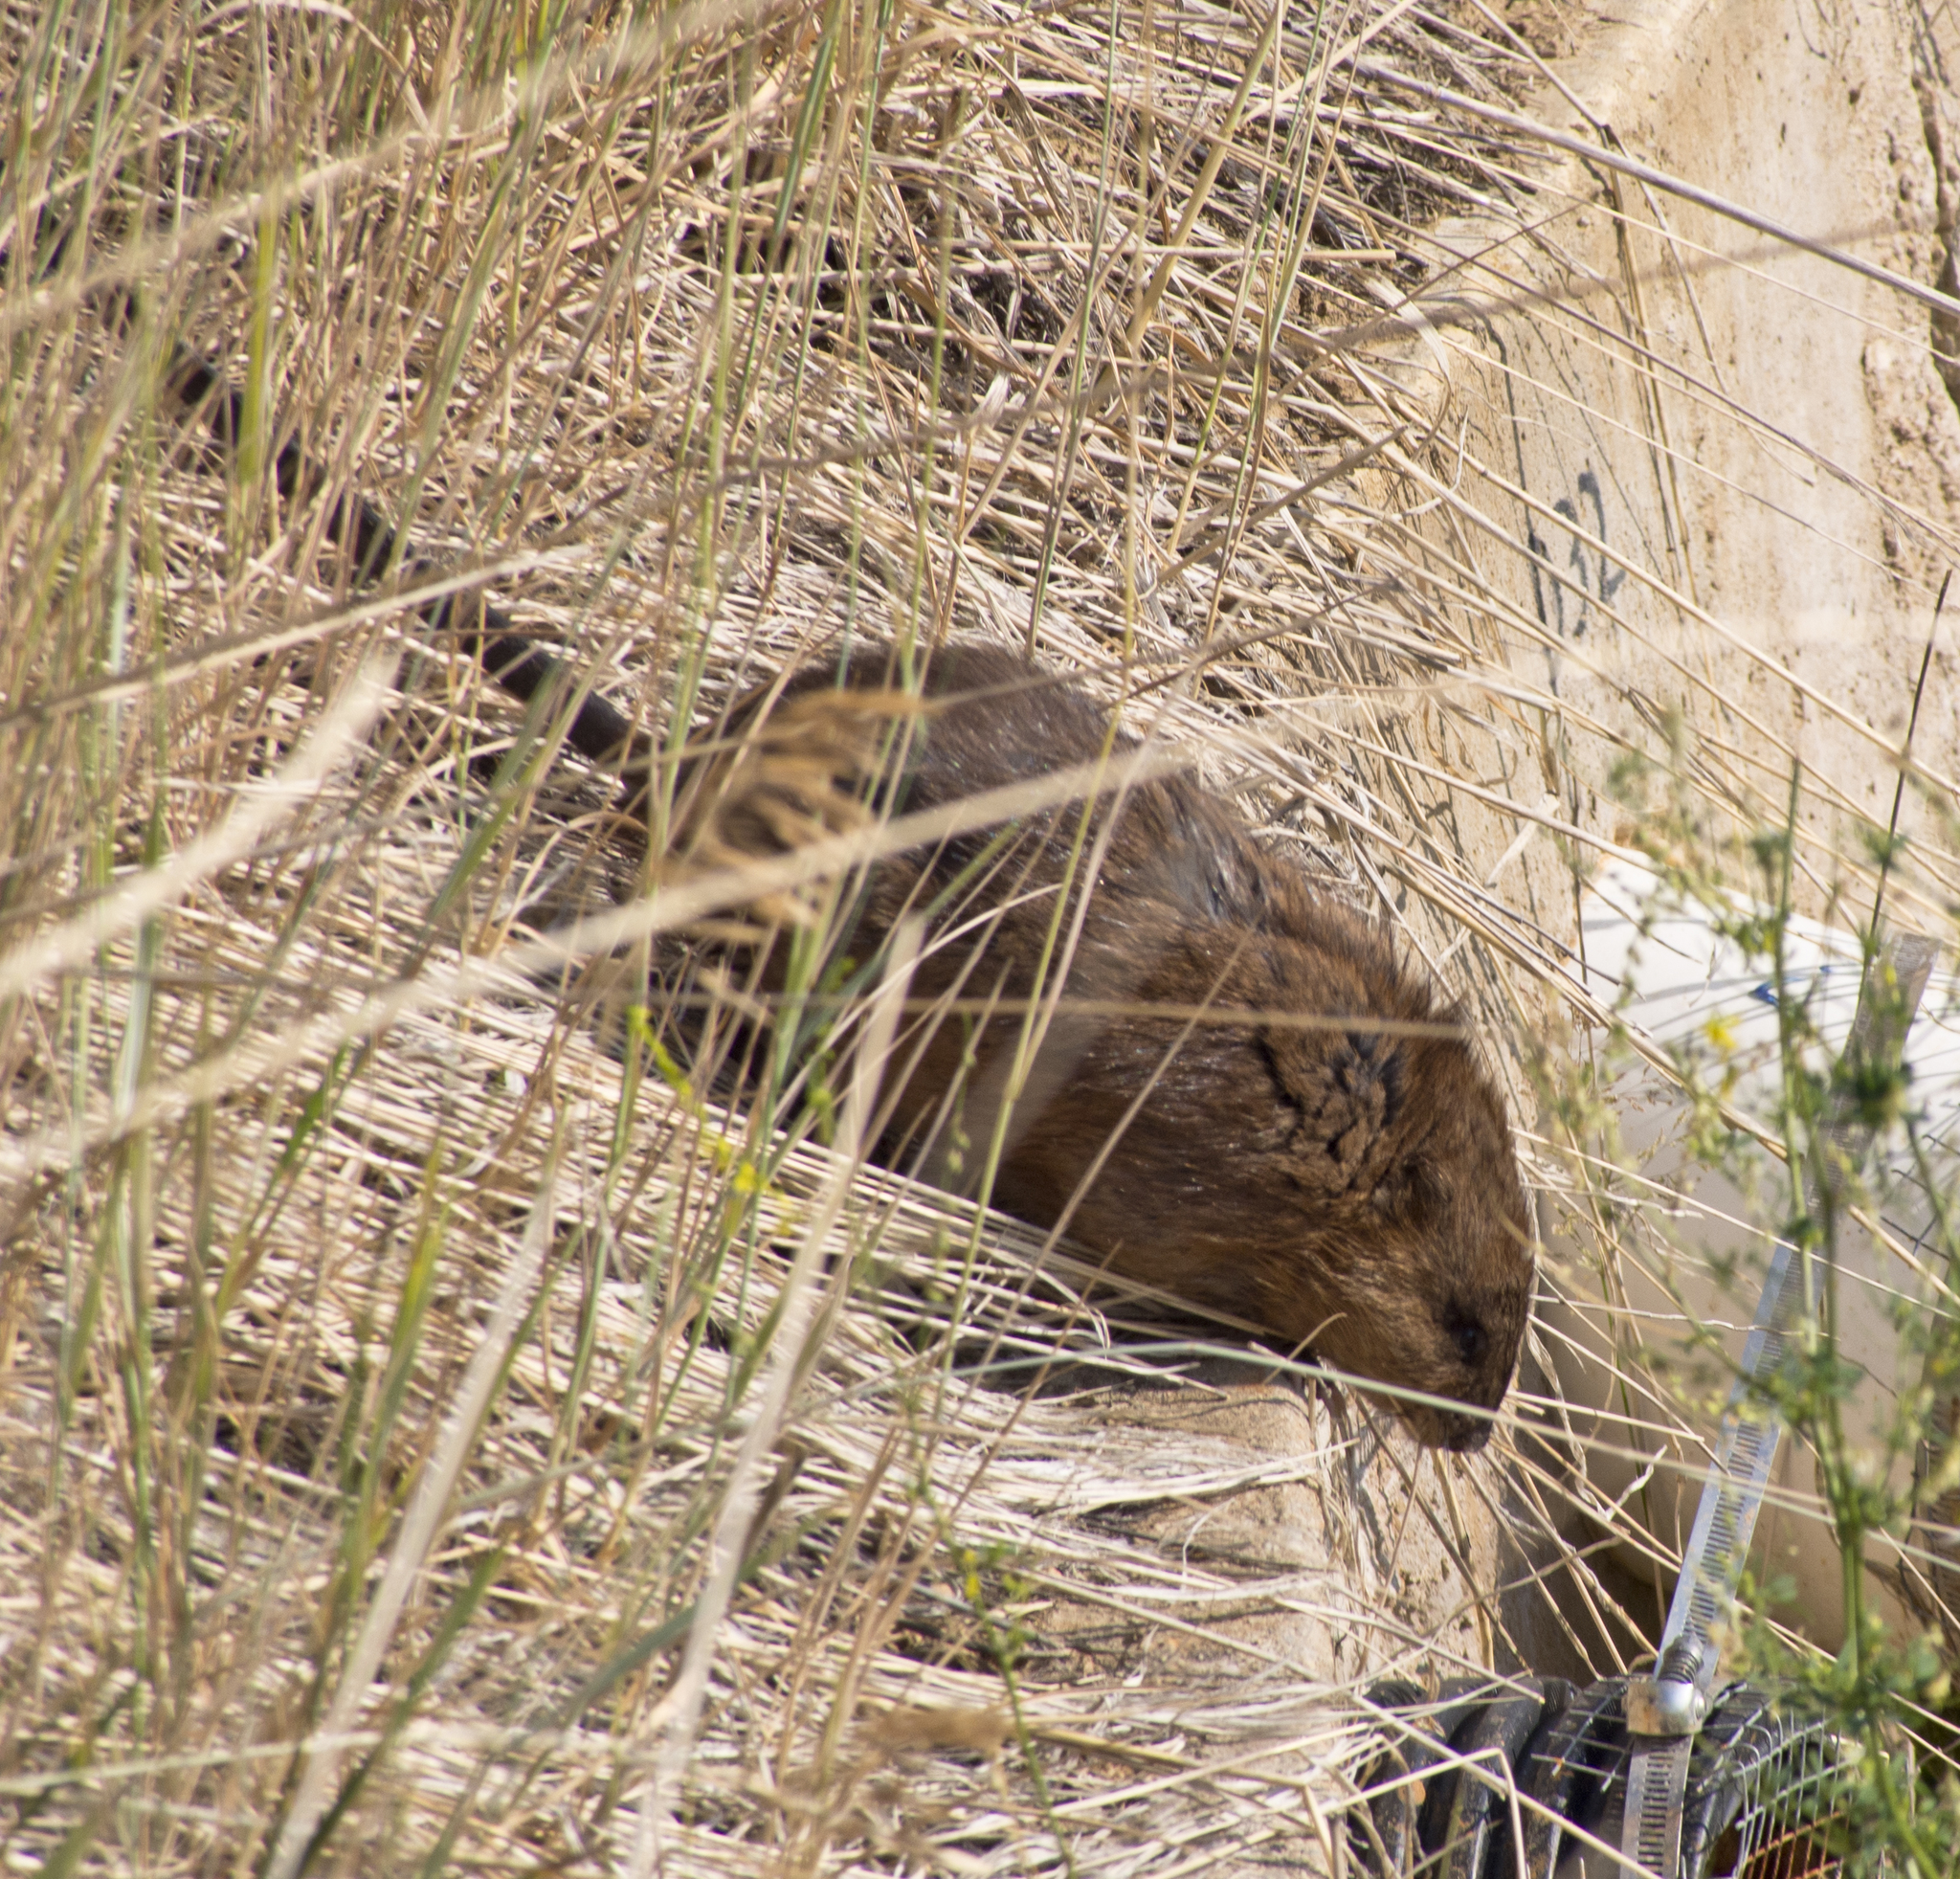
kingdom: Animalia
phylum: Chordata
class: Mammalia
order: Rodentia
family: Cricetidae
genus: Ondatra
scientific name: Ondatra zibethicus
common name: Muskrat
